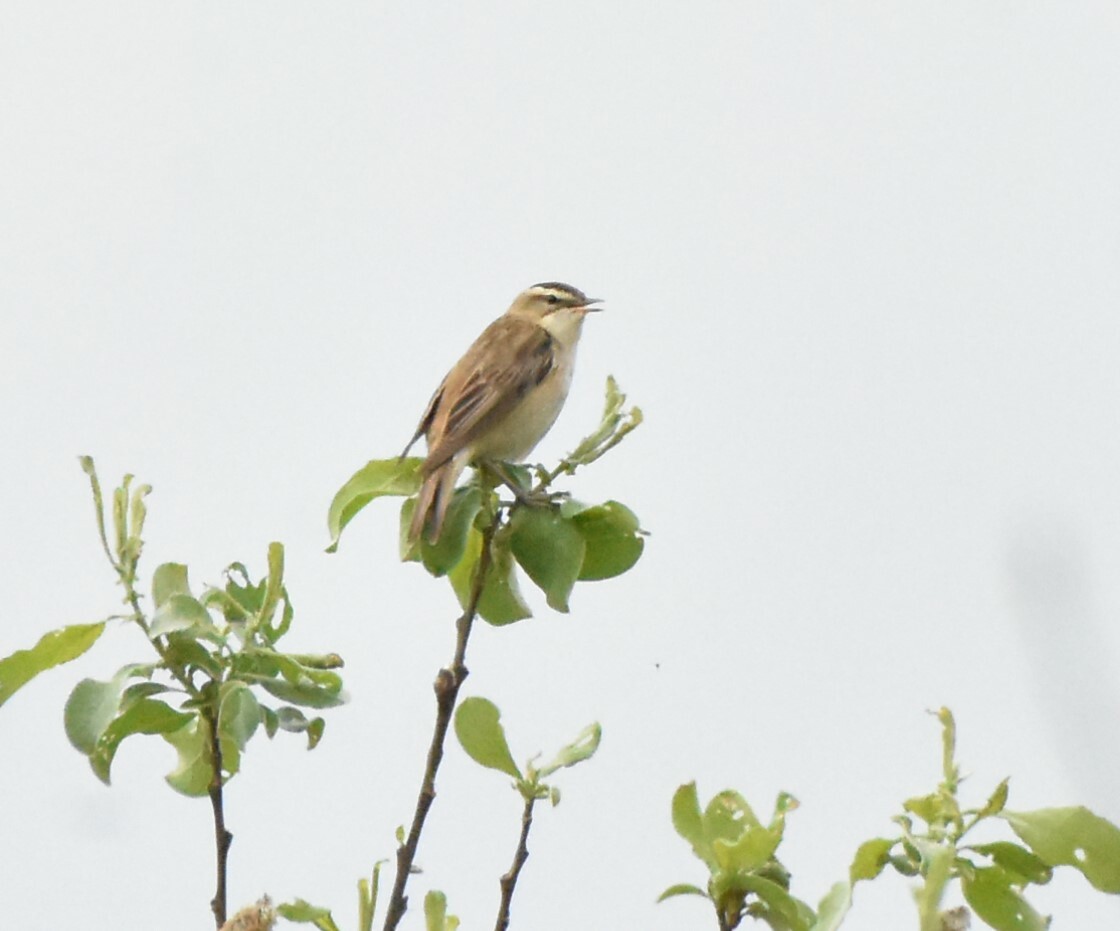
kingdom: Animalia
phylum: Chordata
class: Aves
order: Passeriformes
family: Acrocephalidae
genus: Acrocephalus
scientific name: Acrocephalus schoenobaenus
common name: Sedge warbler
